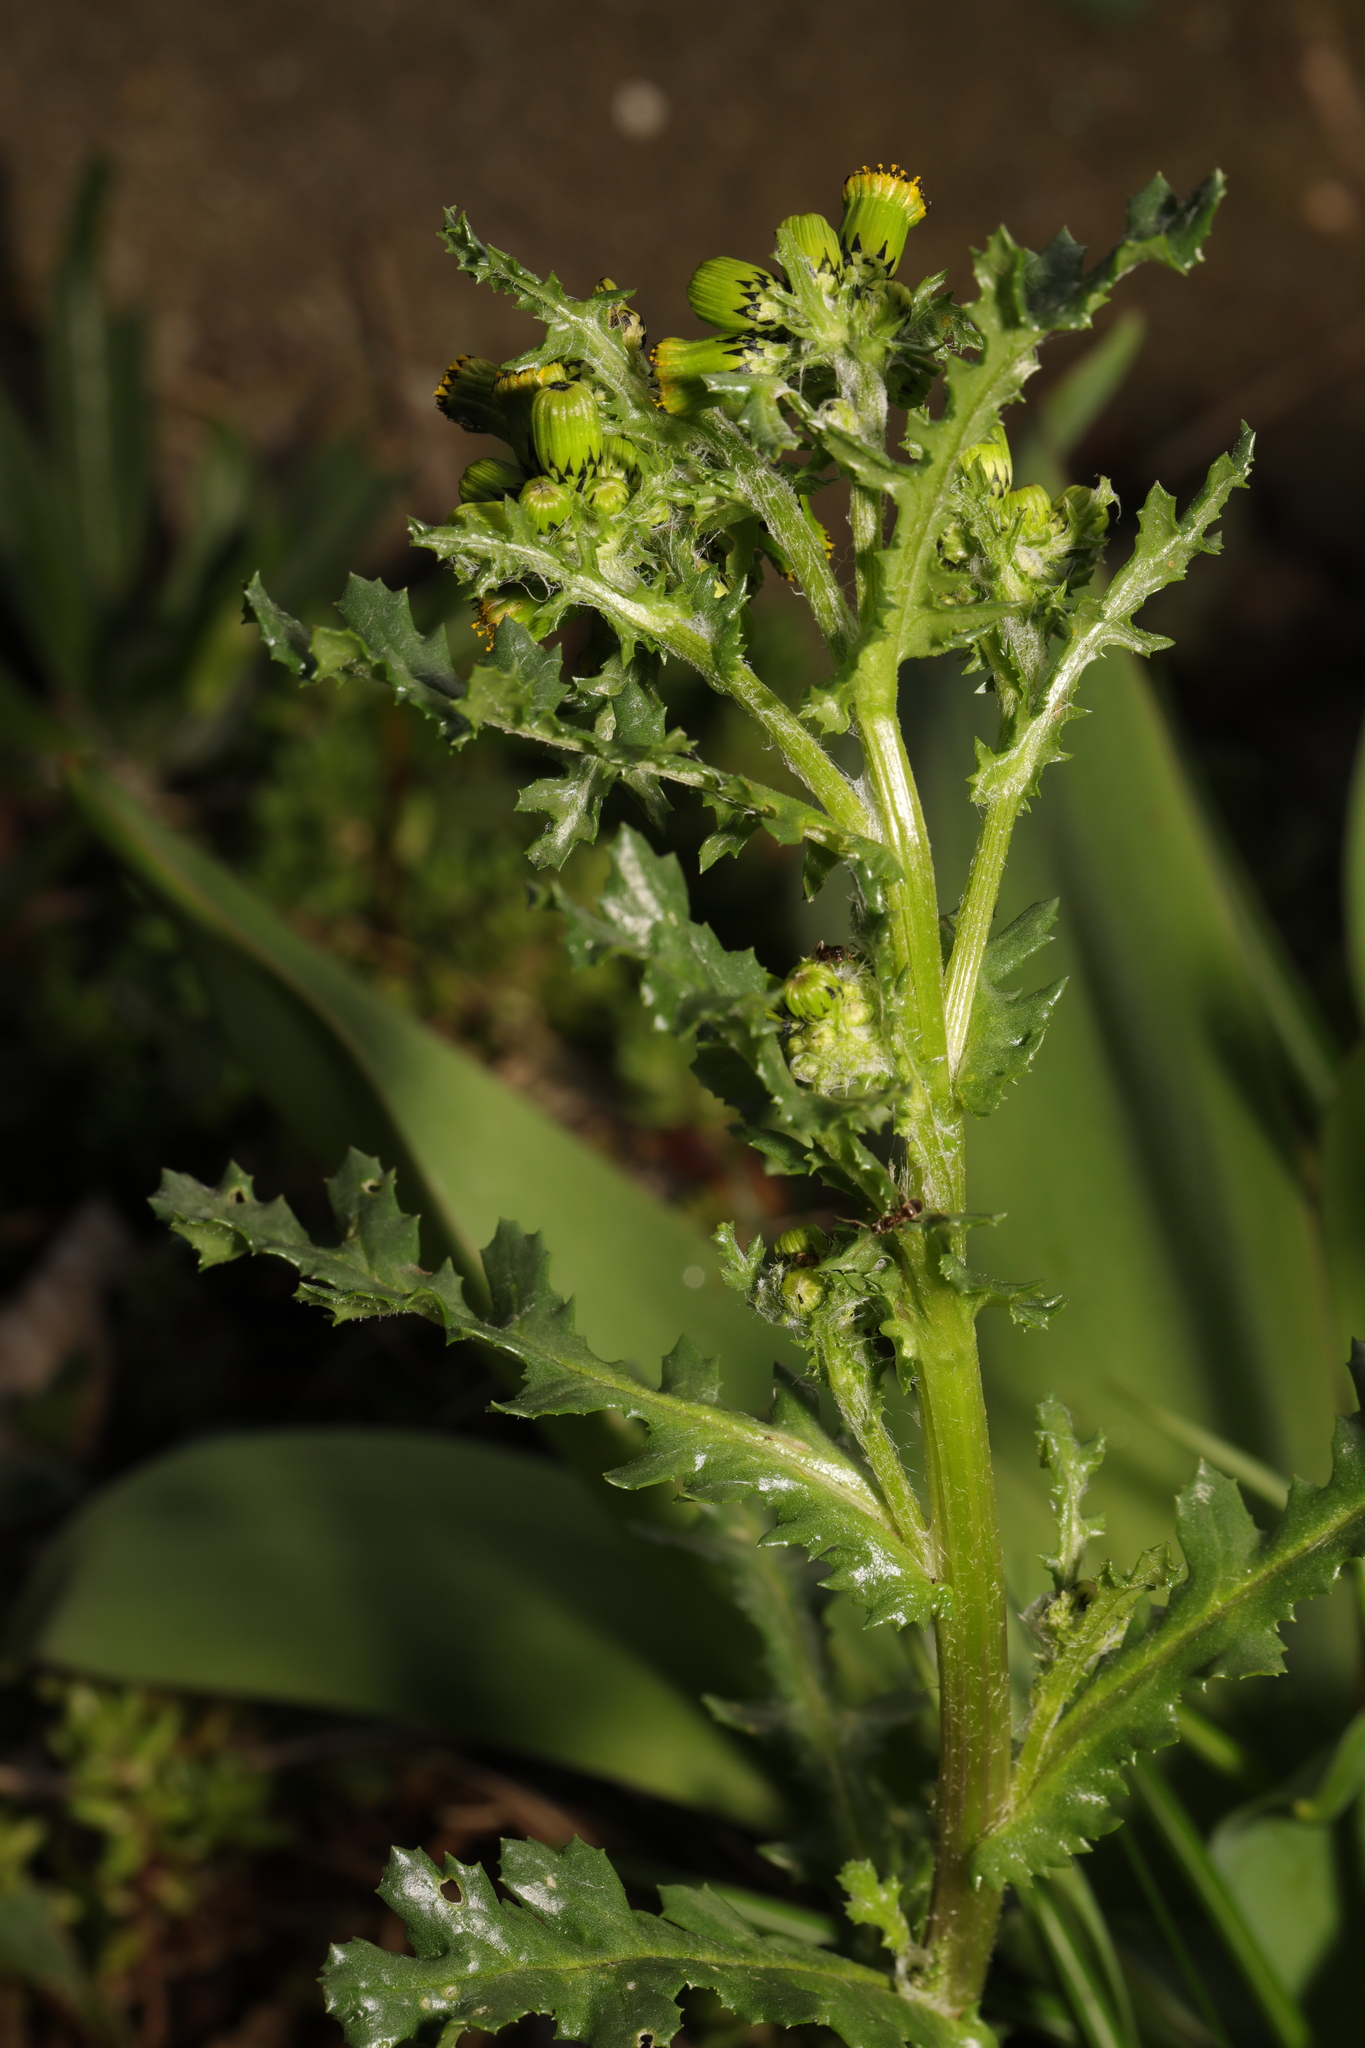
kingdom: Plantae
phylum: Tracheophyta
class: Magnoliopsida
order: Asterales
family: Asteraceae
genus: Senecio
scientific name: Senecio vulgaris
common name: Old-man-in-the-spring
